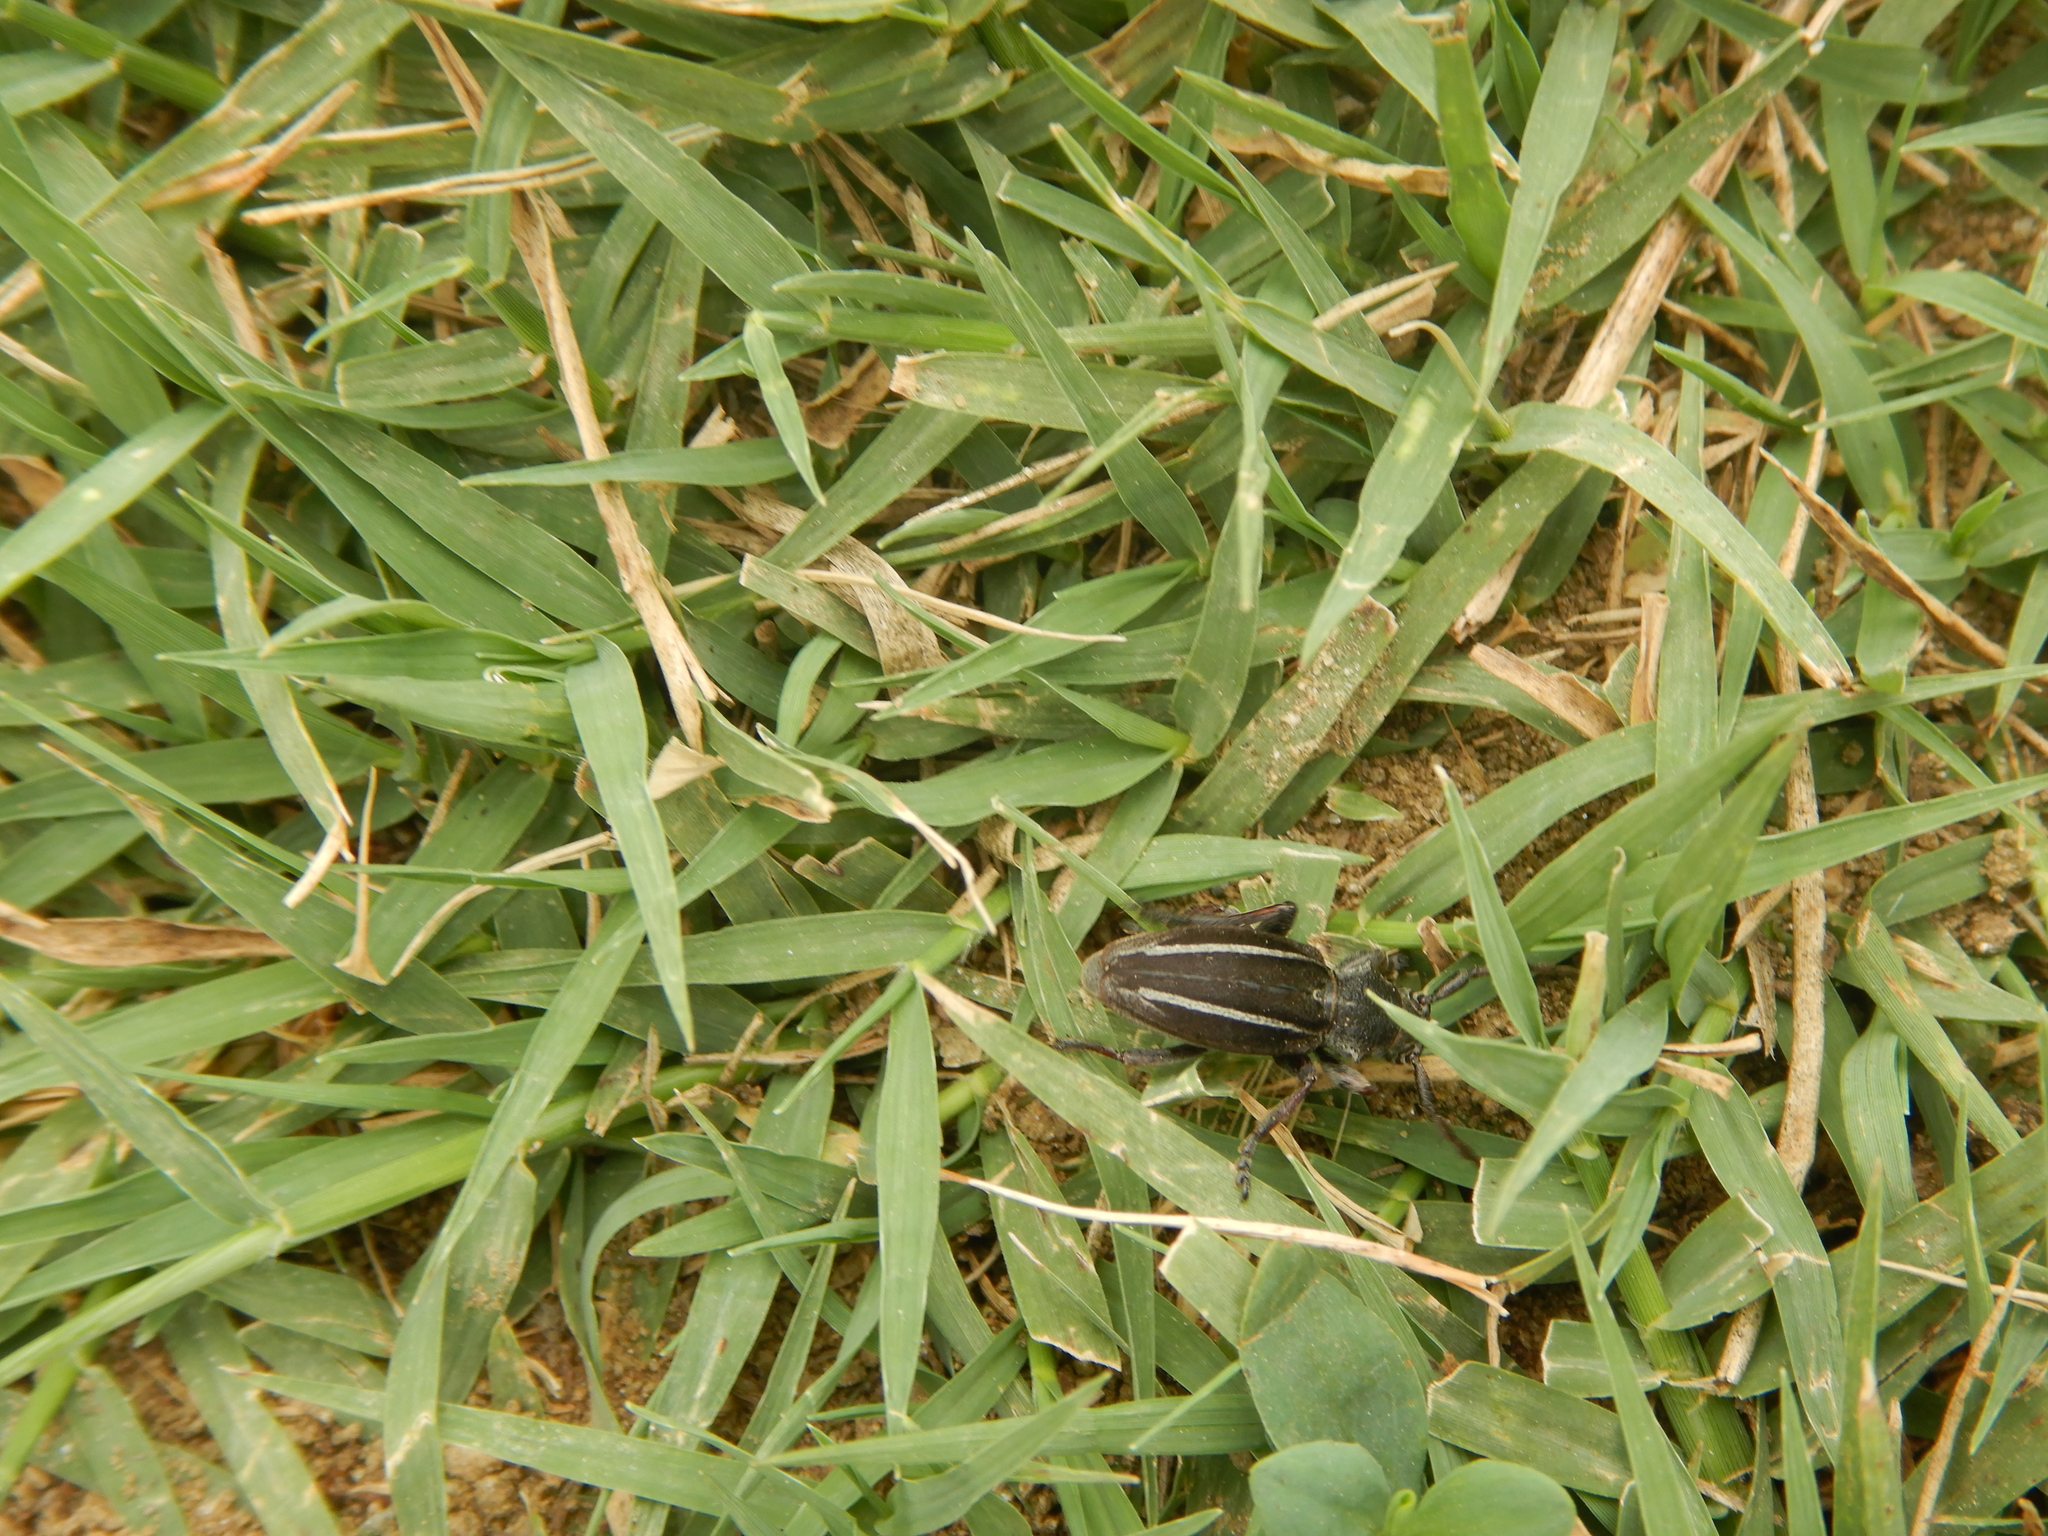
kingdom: Animalia
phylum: Arthropoda
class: Insecta
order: Coleoptera
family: Cerambycidae
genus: Neodorcadion
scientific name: Neodorcadion bilineatum
